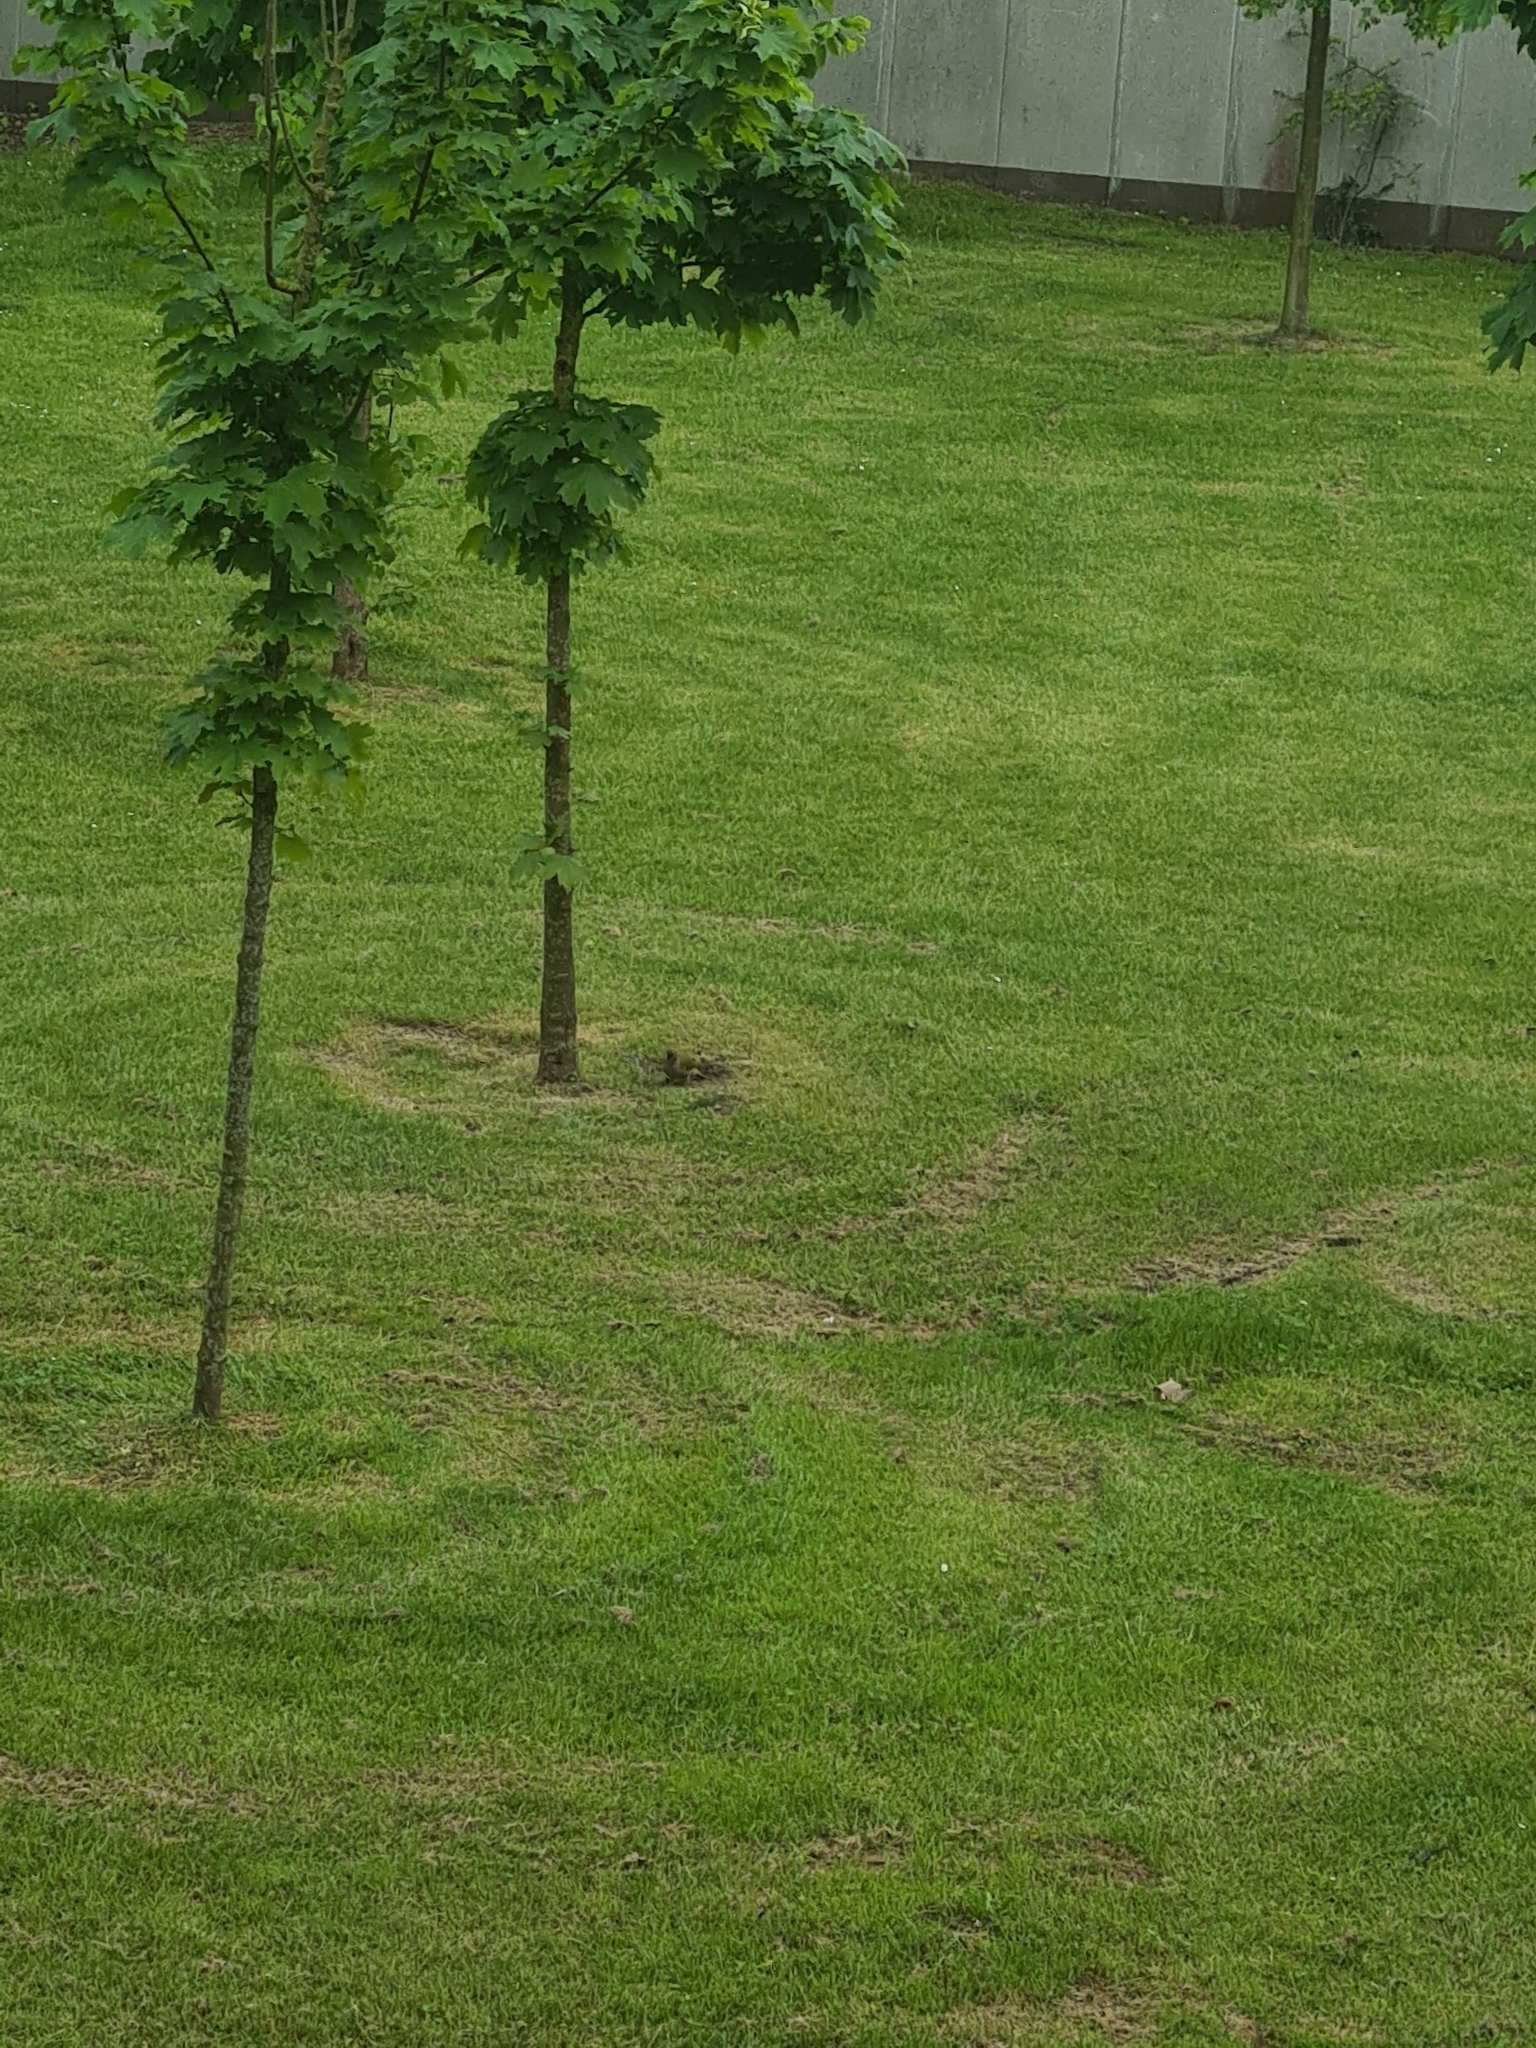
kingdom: Animalia
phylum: Chordata
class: Aves
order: Piciformes
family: Picidae
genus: Picus
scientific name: Picus viridis
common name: European green woodpecker
